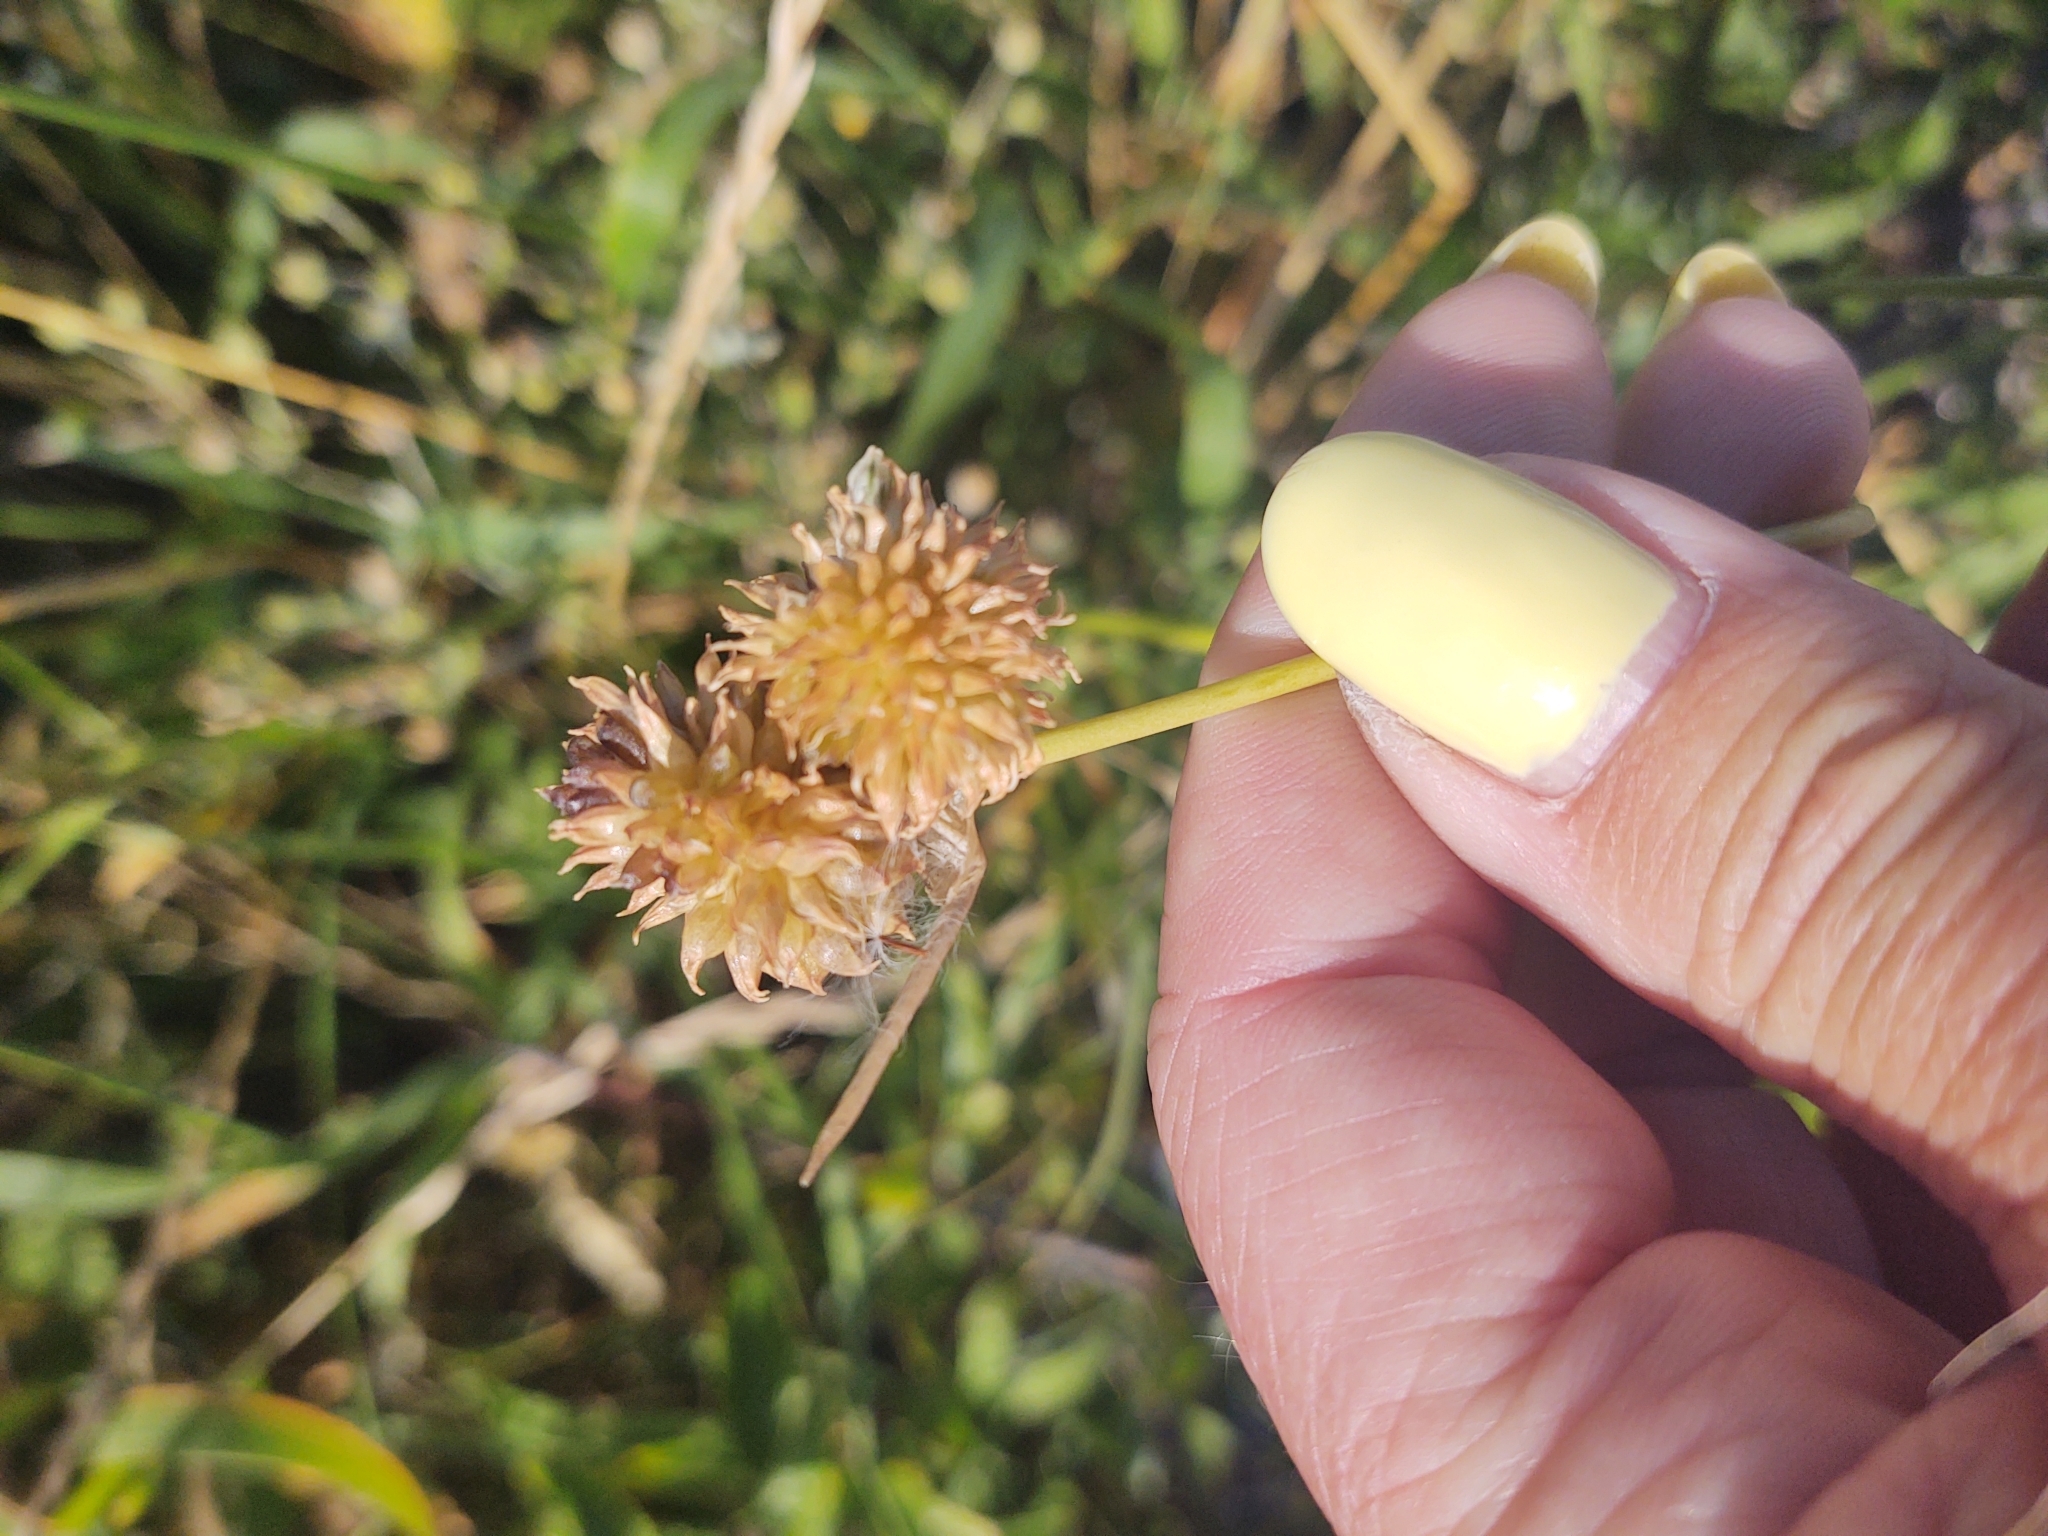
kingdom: Plantae
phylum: Tracheophyta
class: Liliopsida
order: Asparagales
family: Amaryllidaceae
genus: Allium
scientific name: Allium vineale
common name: Crow garlic
